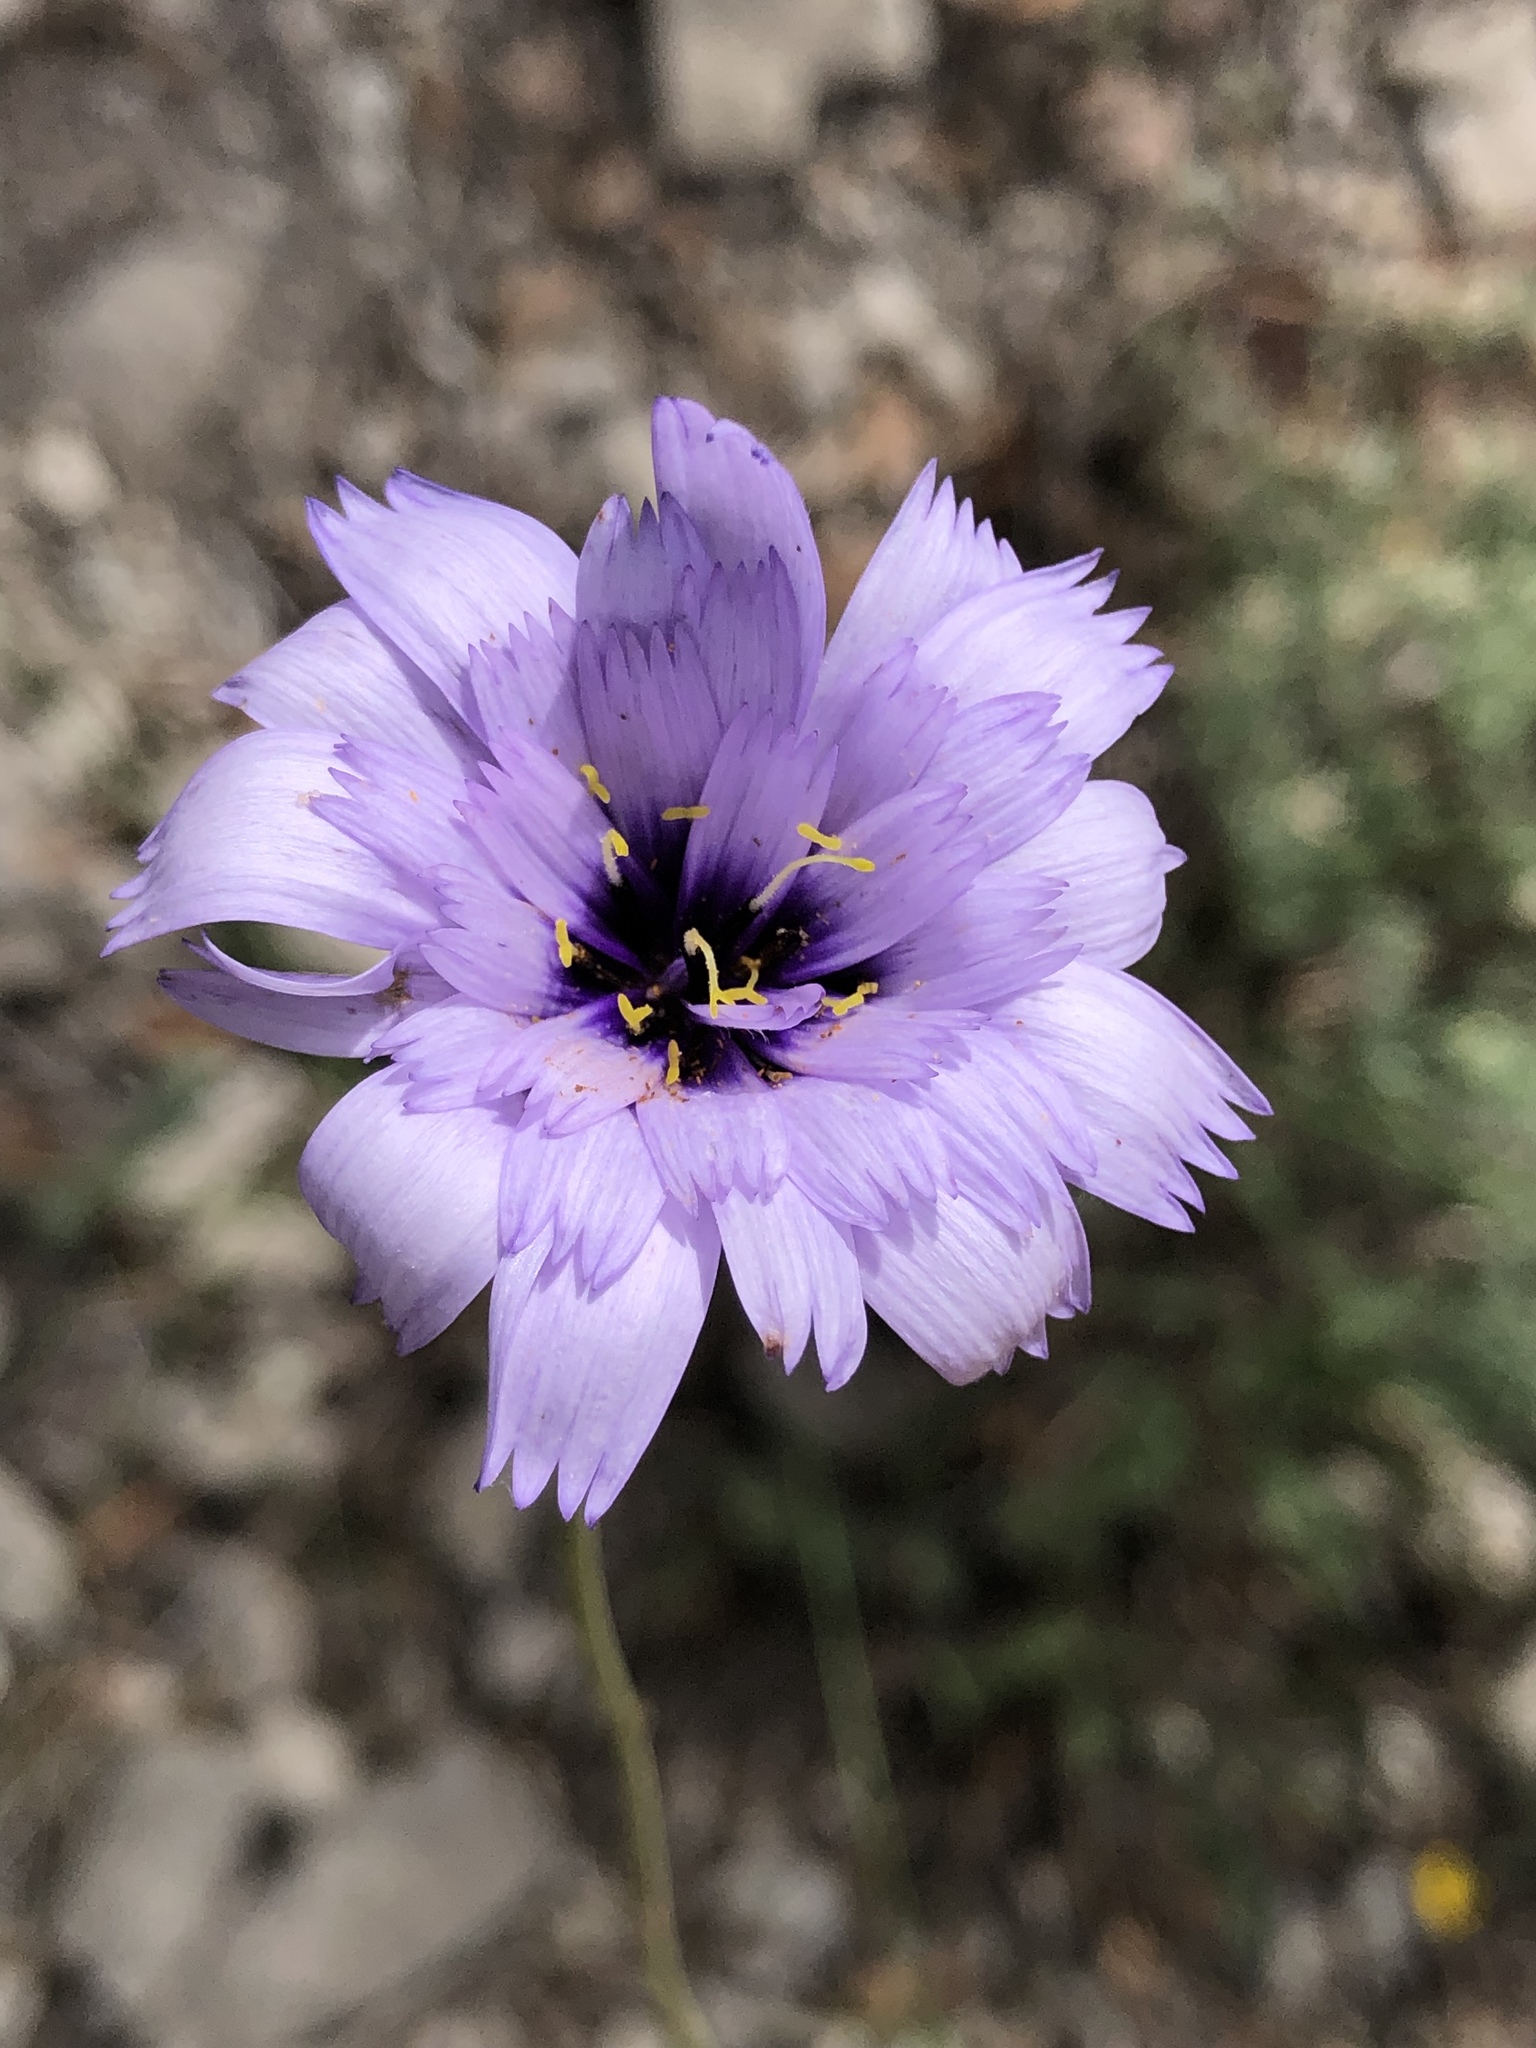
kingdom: Plantae
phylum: Tracheophyta
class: Magnoliopsida
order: Asterales
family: Asteraceae
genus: Catananche
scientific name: Catananche caerulea
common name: Blue cupidone
